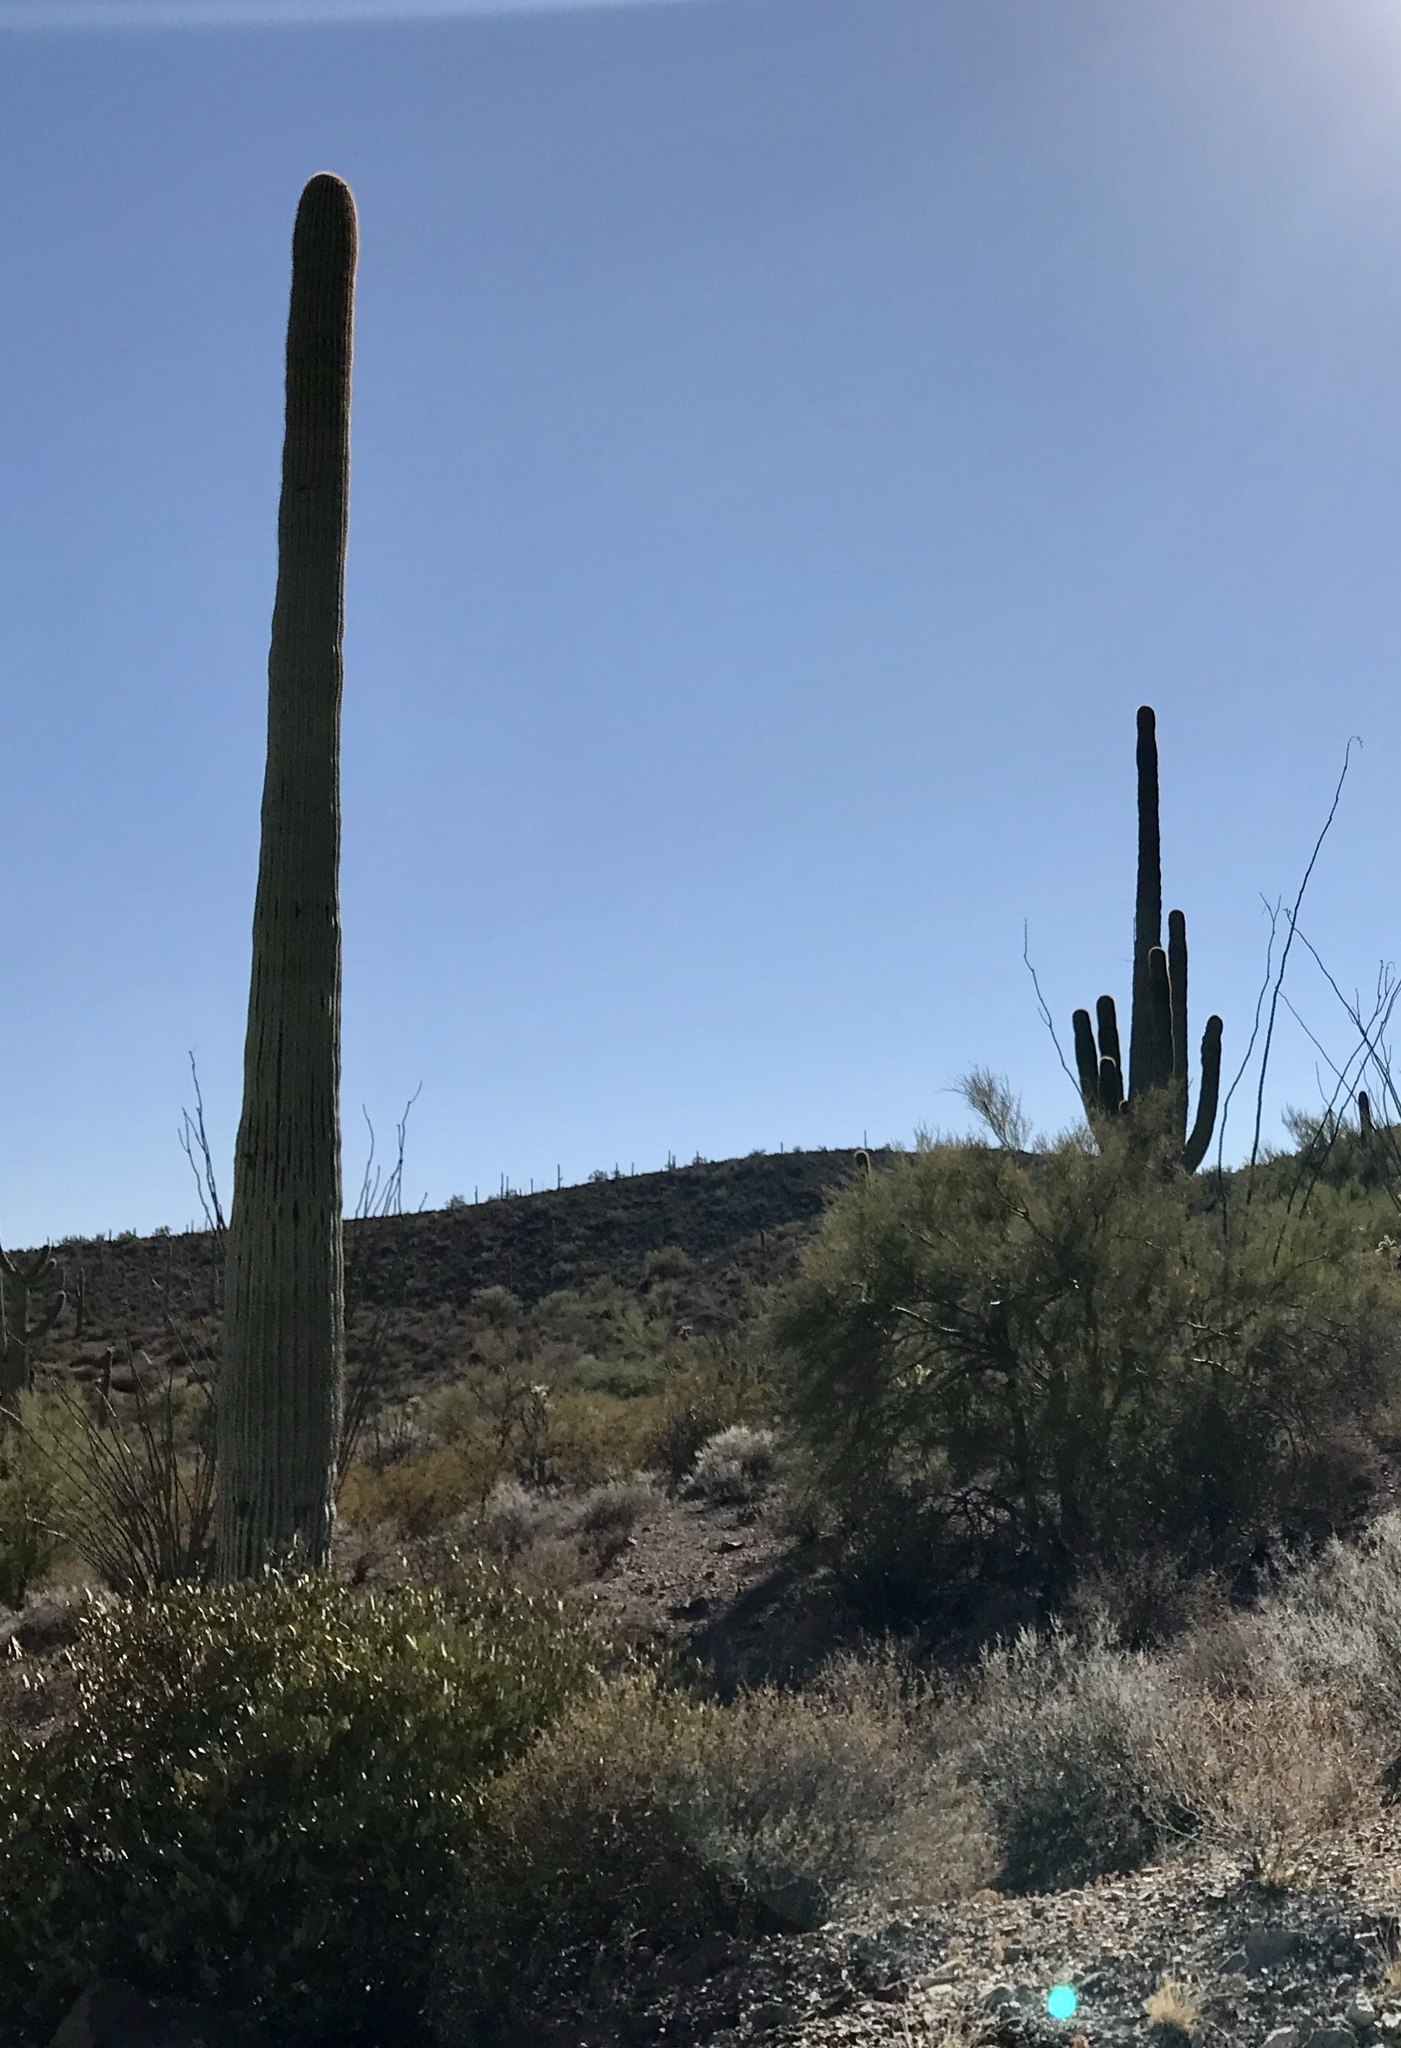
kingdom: Plantae
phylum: Tracheophyta
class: Magnoliopsida
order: Caryophyllales
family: Cactaceae
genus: Carnegiea
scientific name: Carnegiea gigantea
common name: Saguaro
